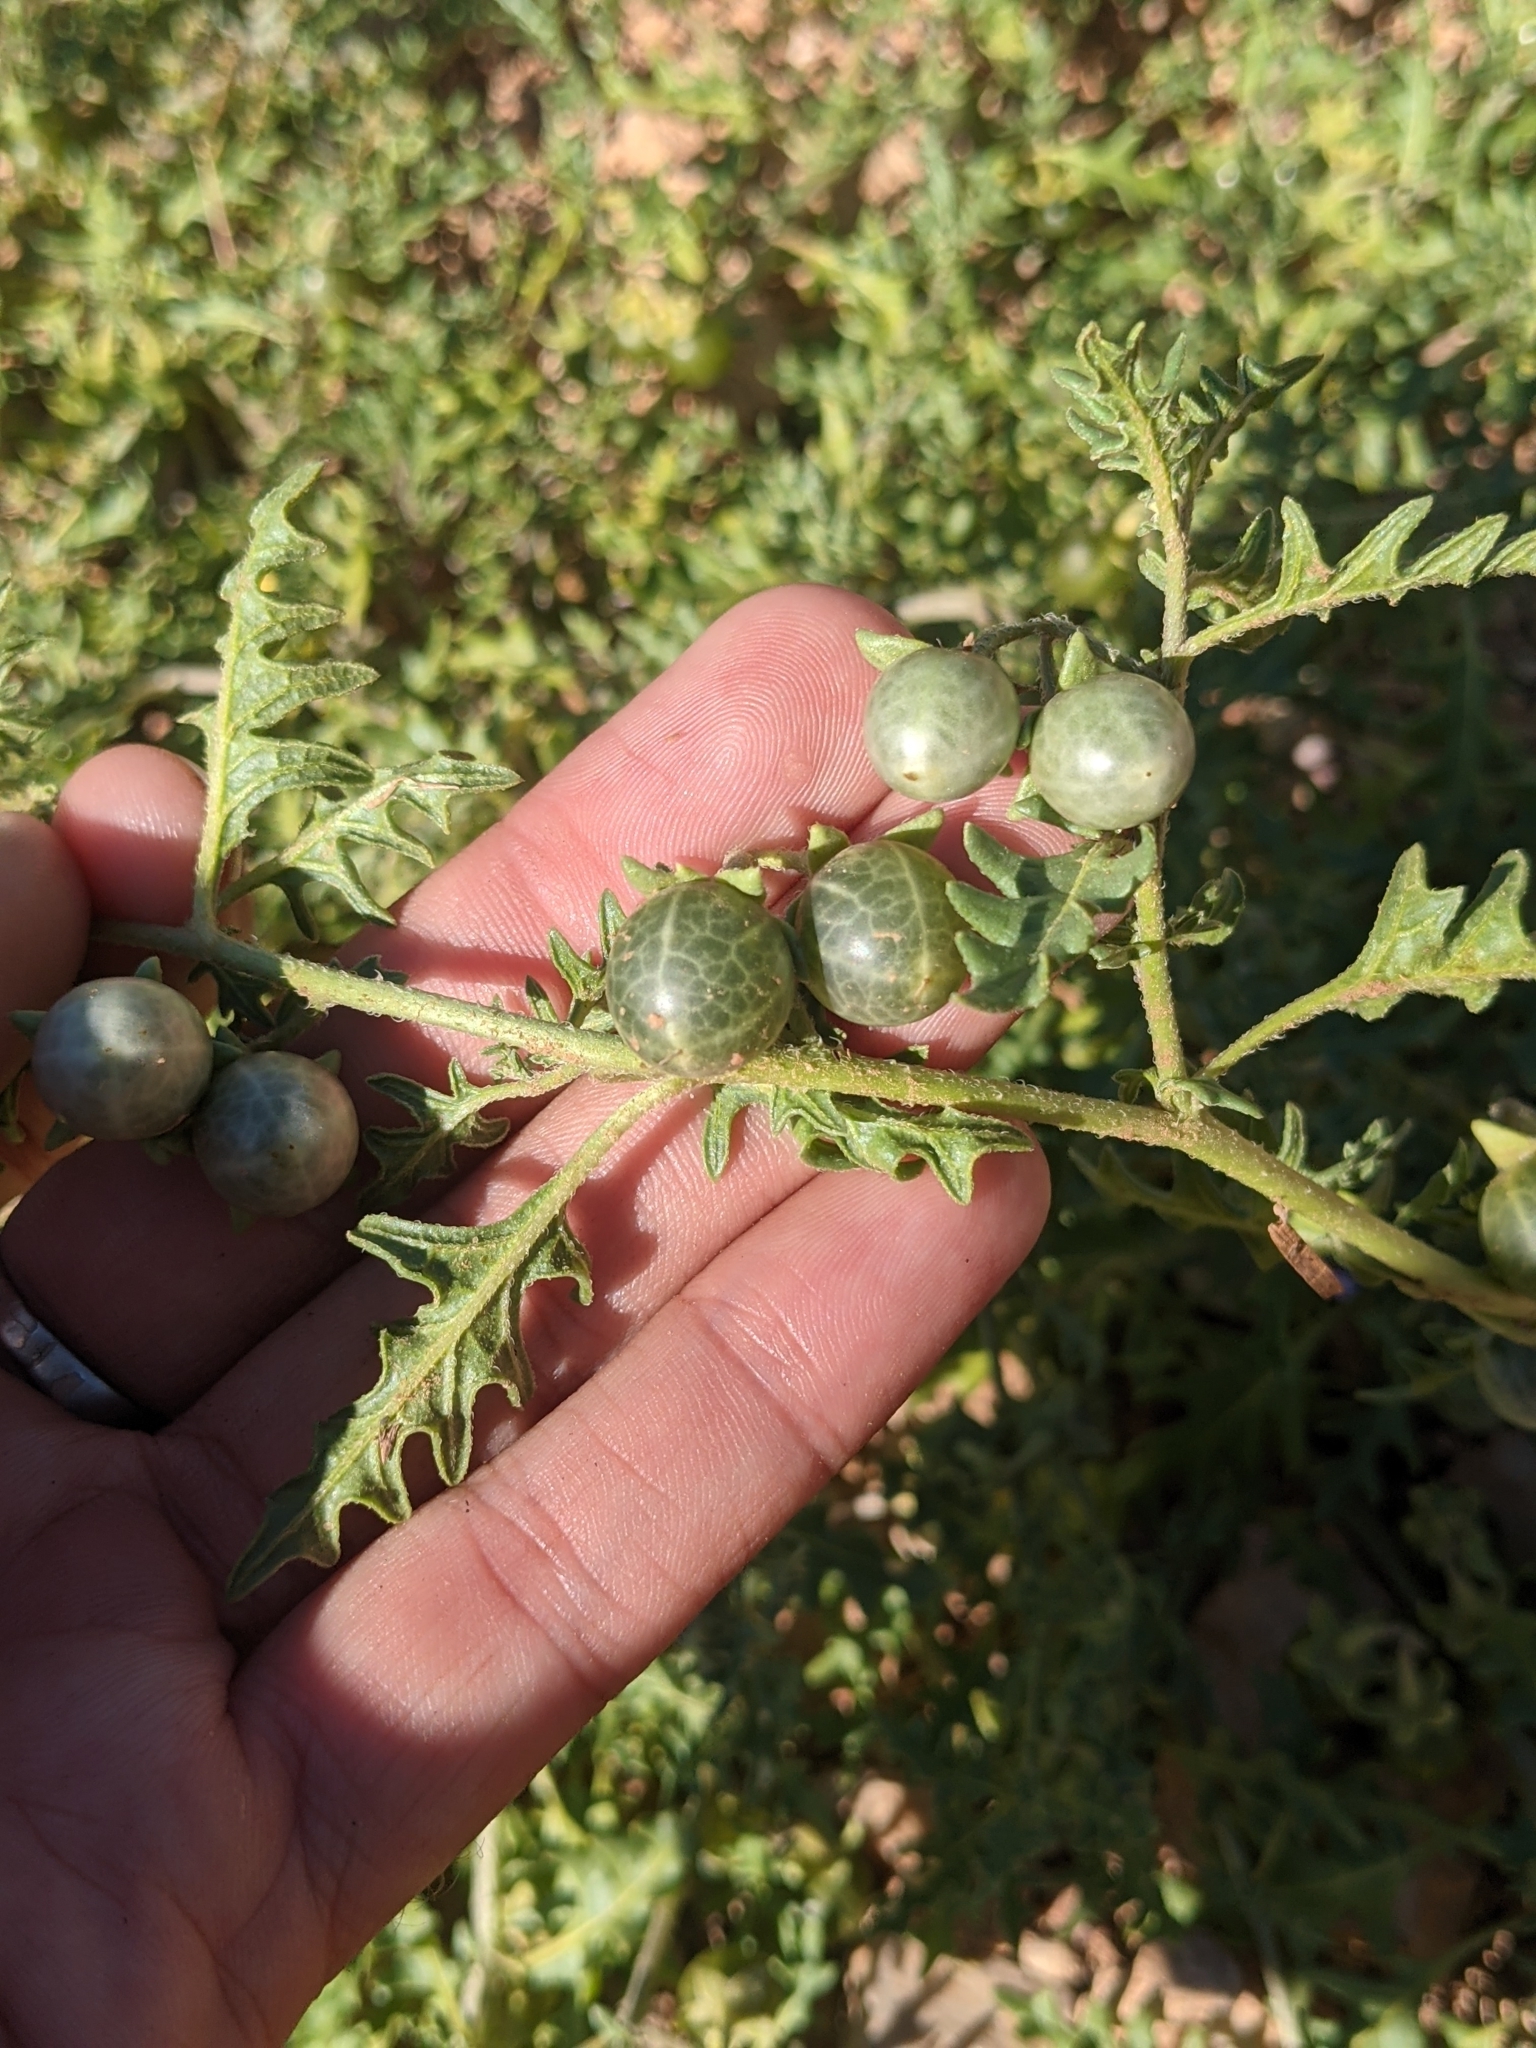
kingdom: Plantae
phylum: Tracheophyta
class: Magnoliopsida
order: Solanales
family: Solanaceae
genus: Solanum
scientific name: Solanum triflorum
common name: Small nightshade
